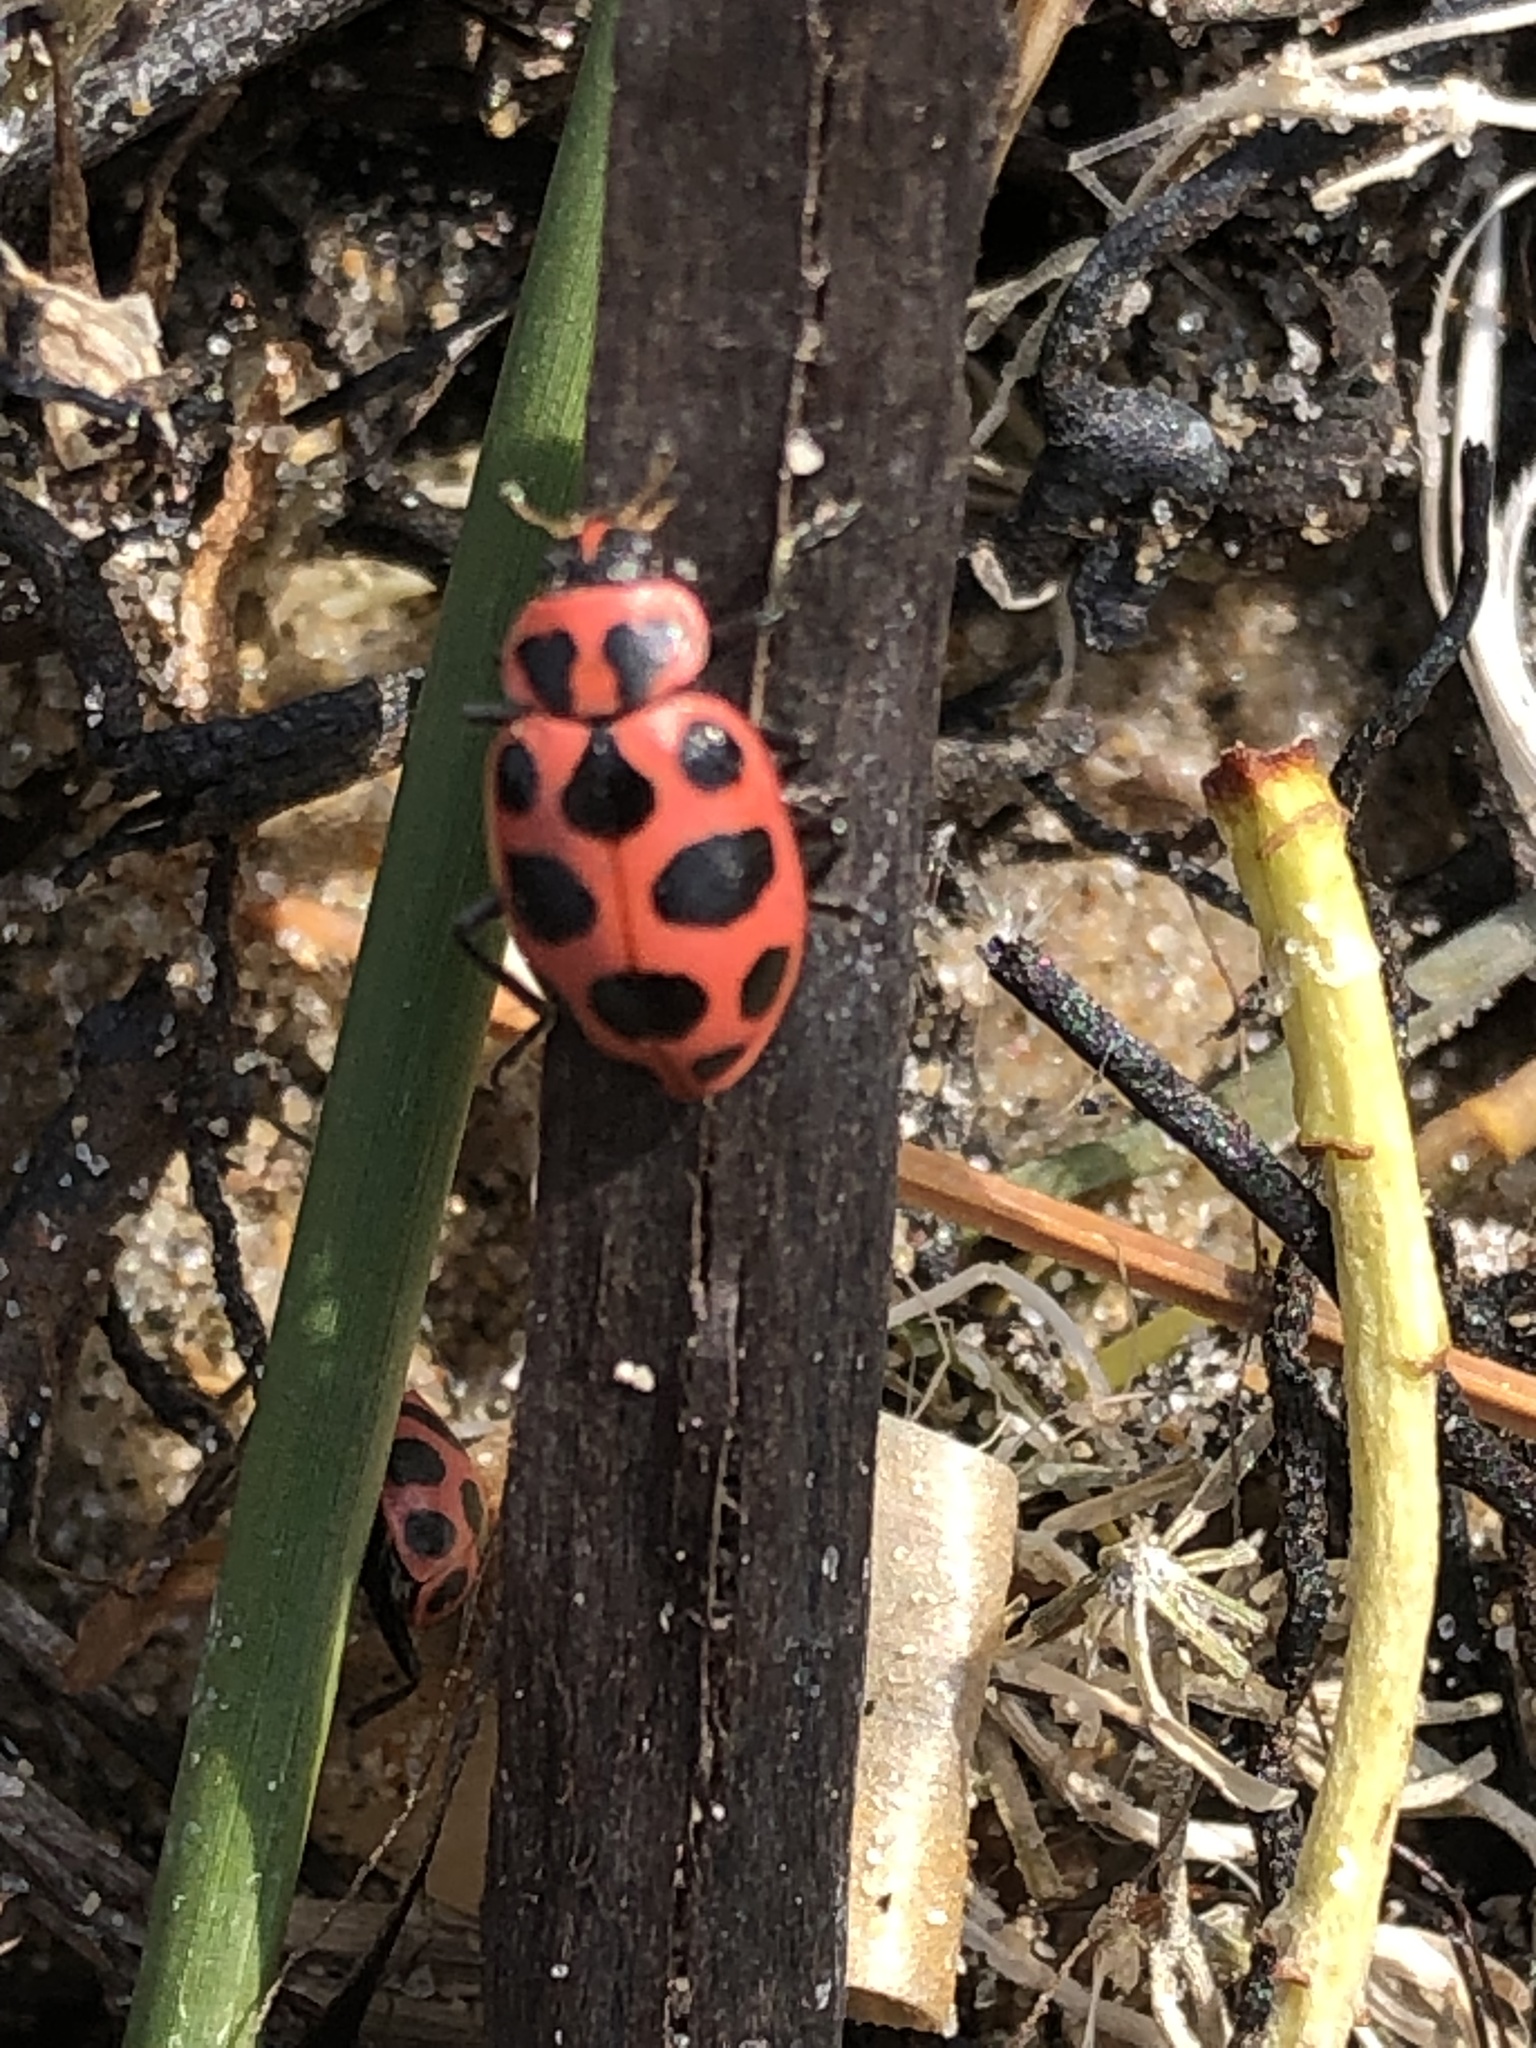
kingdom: Animalia
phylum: Arthropoda
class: Insecta
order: Coleoptera
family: Coccinellidae
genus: Coleomegilla
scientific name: Coleomegilla maculata
